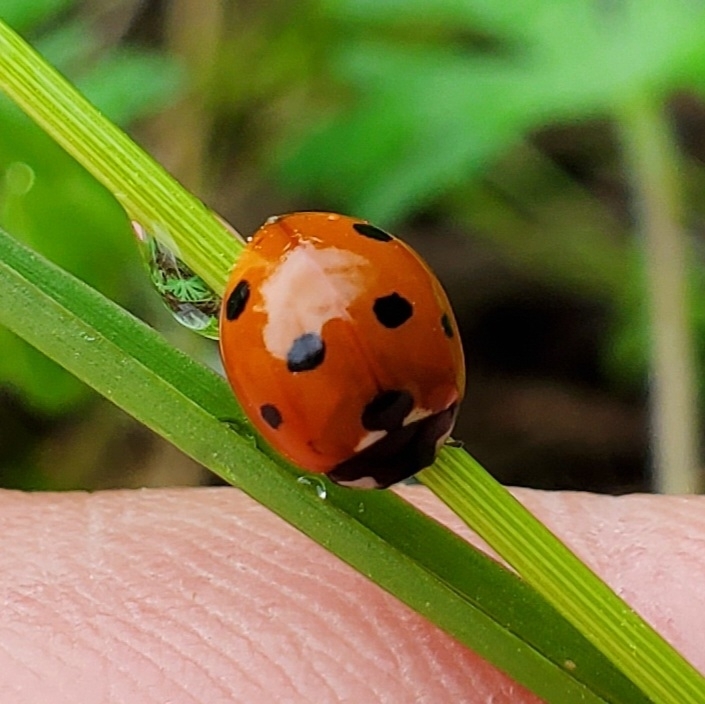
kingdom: Animalia
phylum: Arthropoda
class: Insecta
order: Coleoptera
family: Coccinellidae
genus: Coccinella
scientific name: Coccinella septempunctata
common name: Sevenspotted lady beetle
